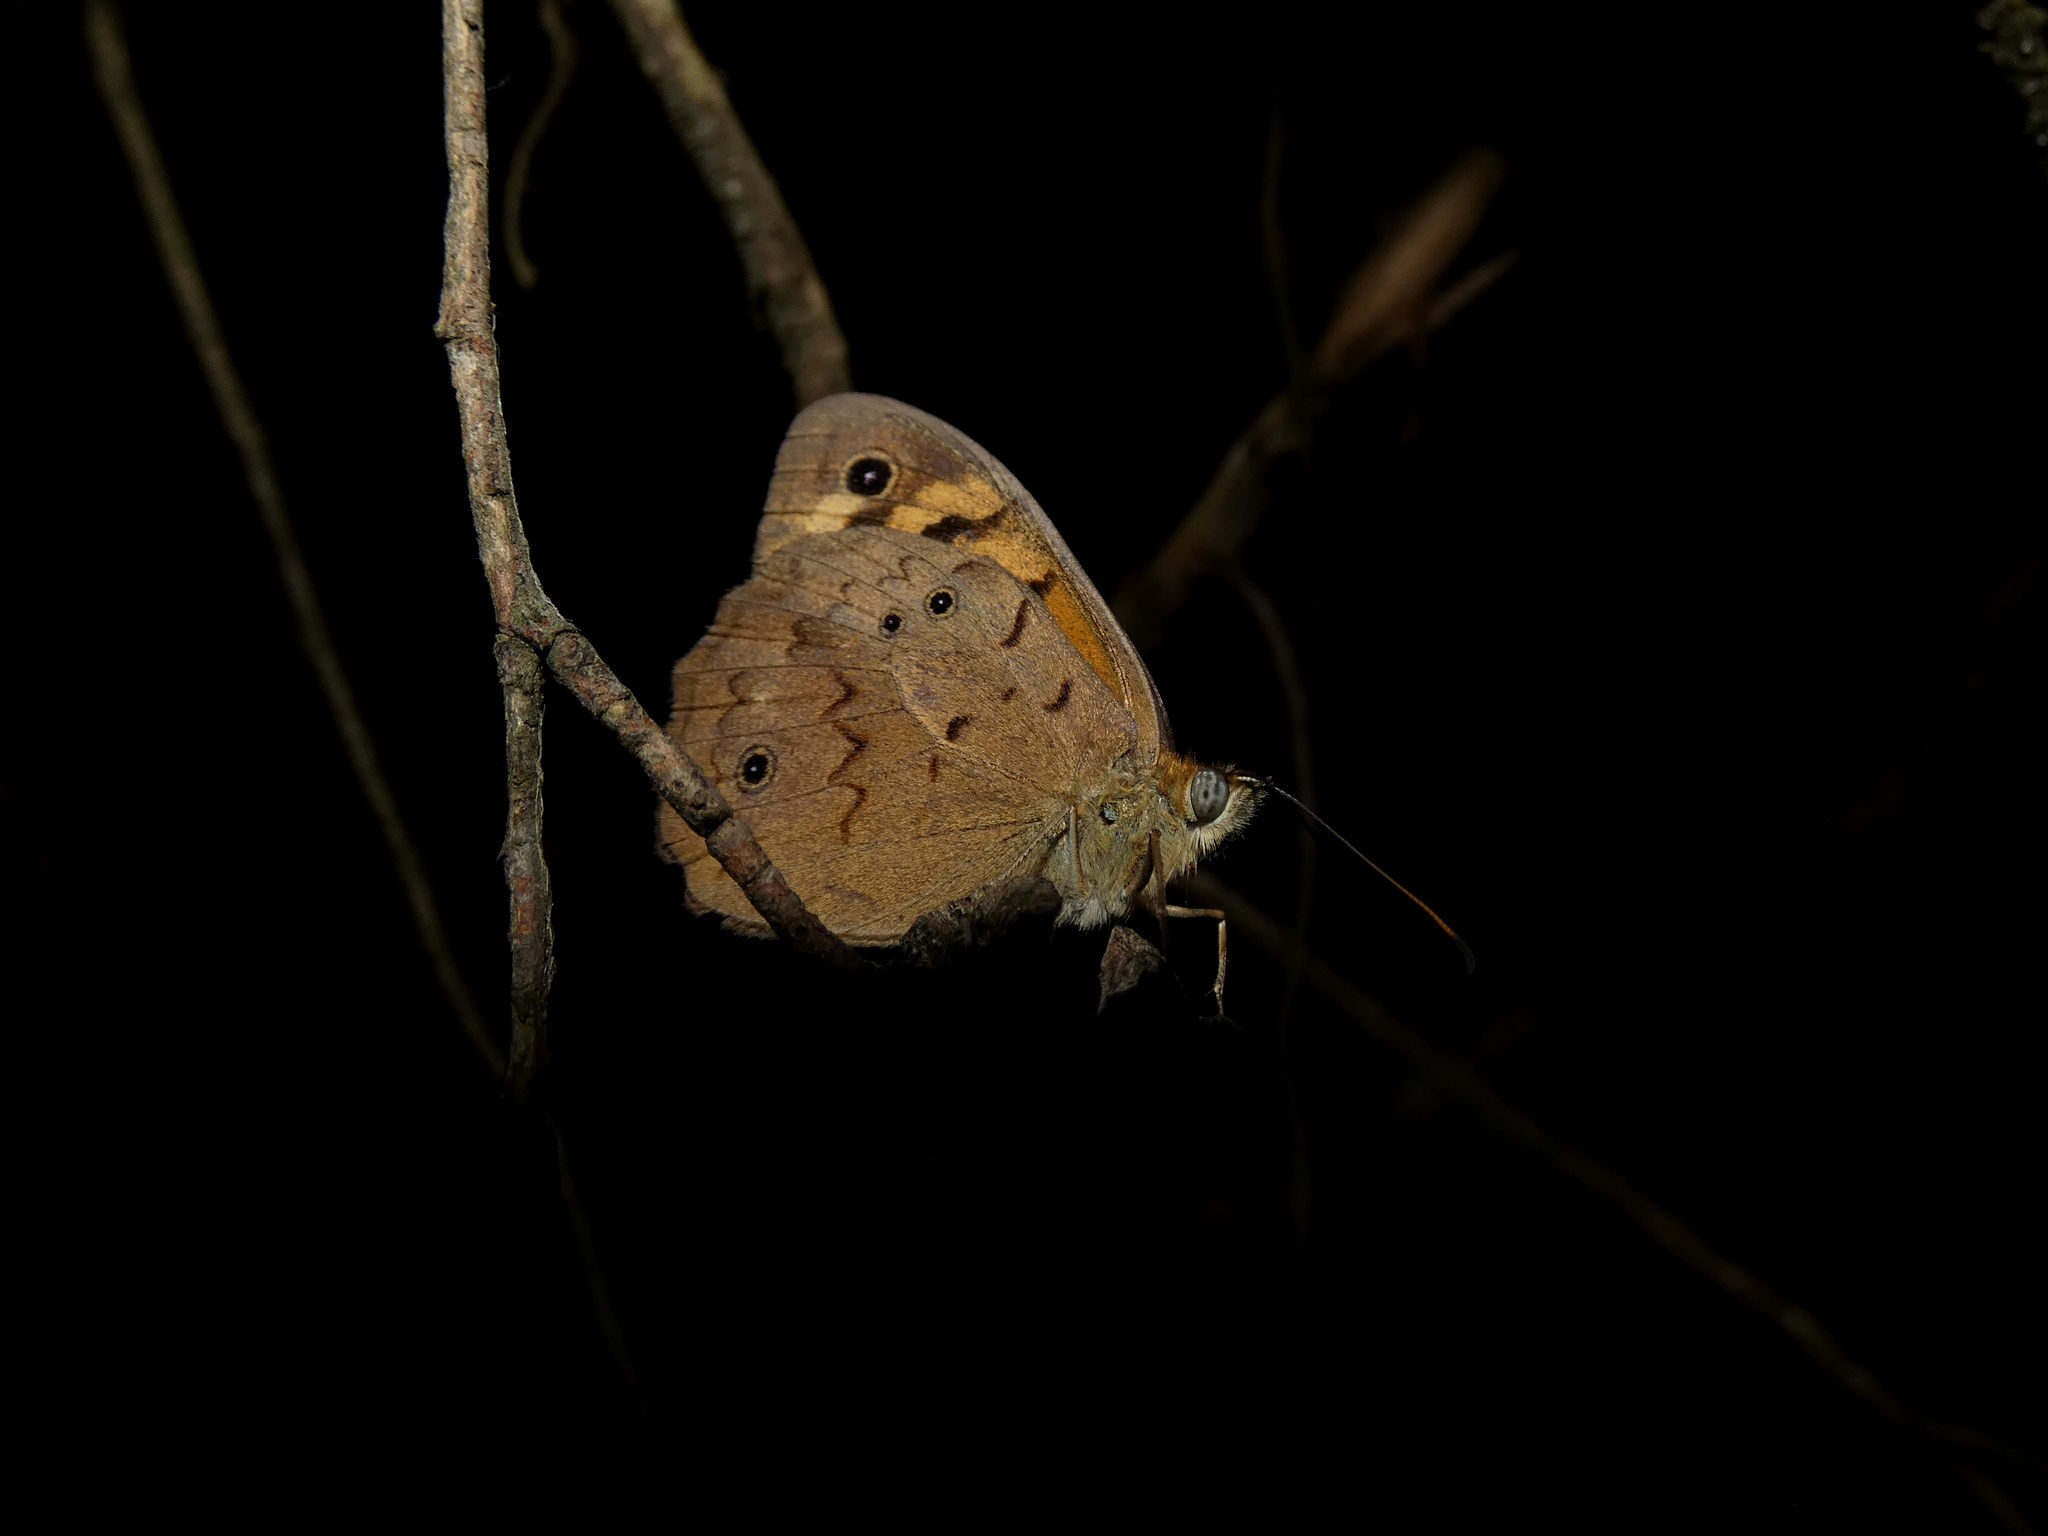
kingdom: Animalia
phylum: Arthropoda
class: Insecta
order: Lepidoptera
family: Nymphalidae
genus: Heteronympha
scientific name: Heteronympha merope
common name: Common brown
